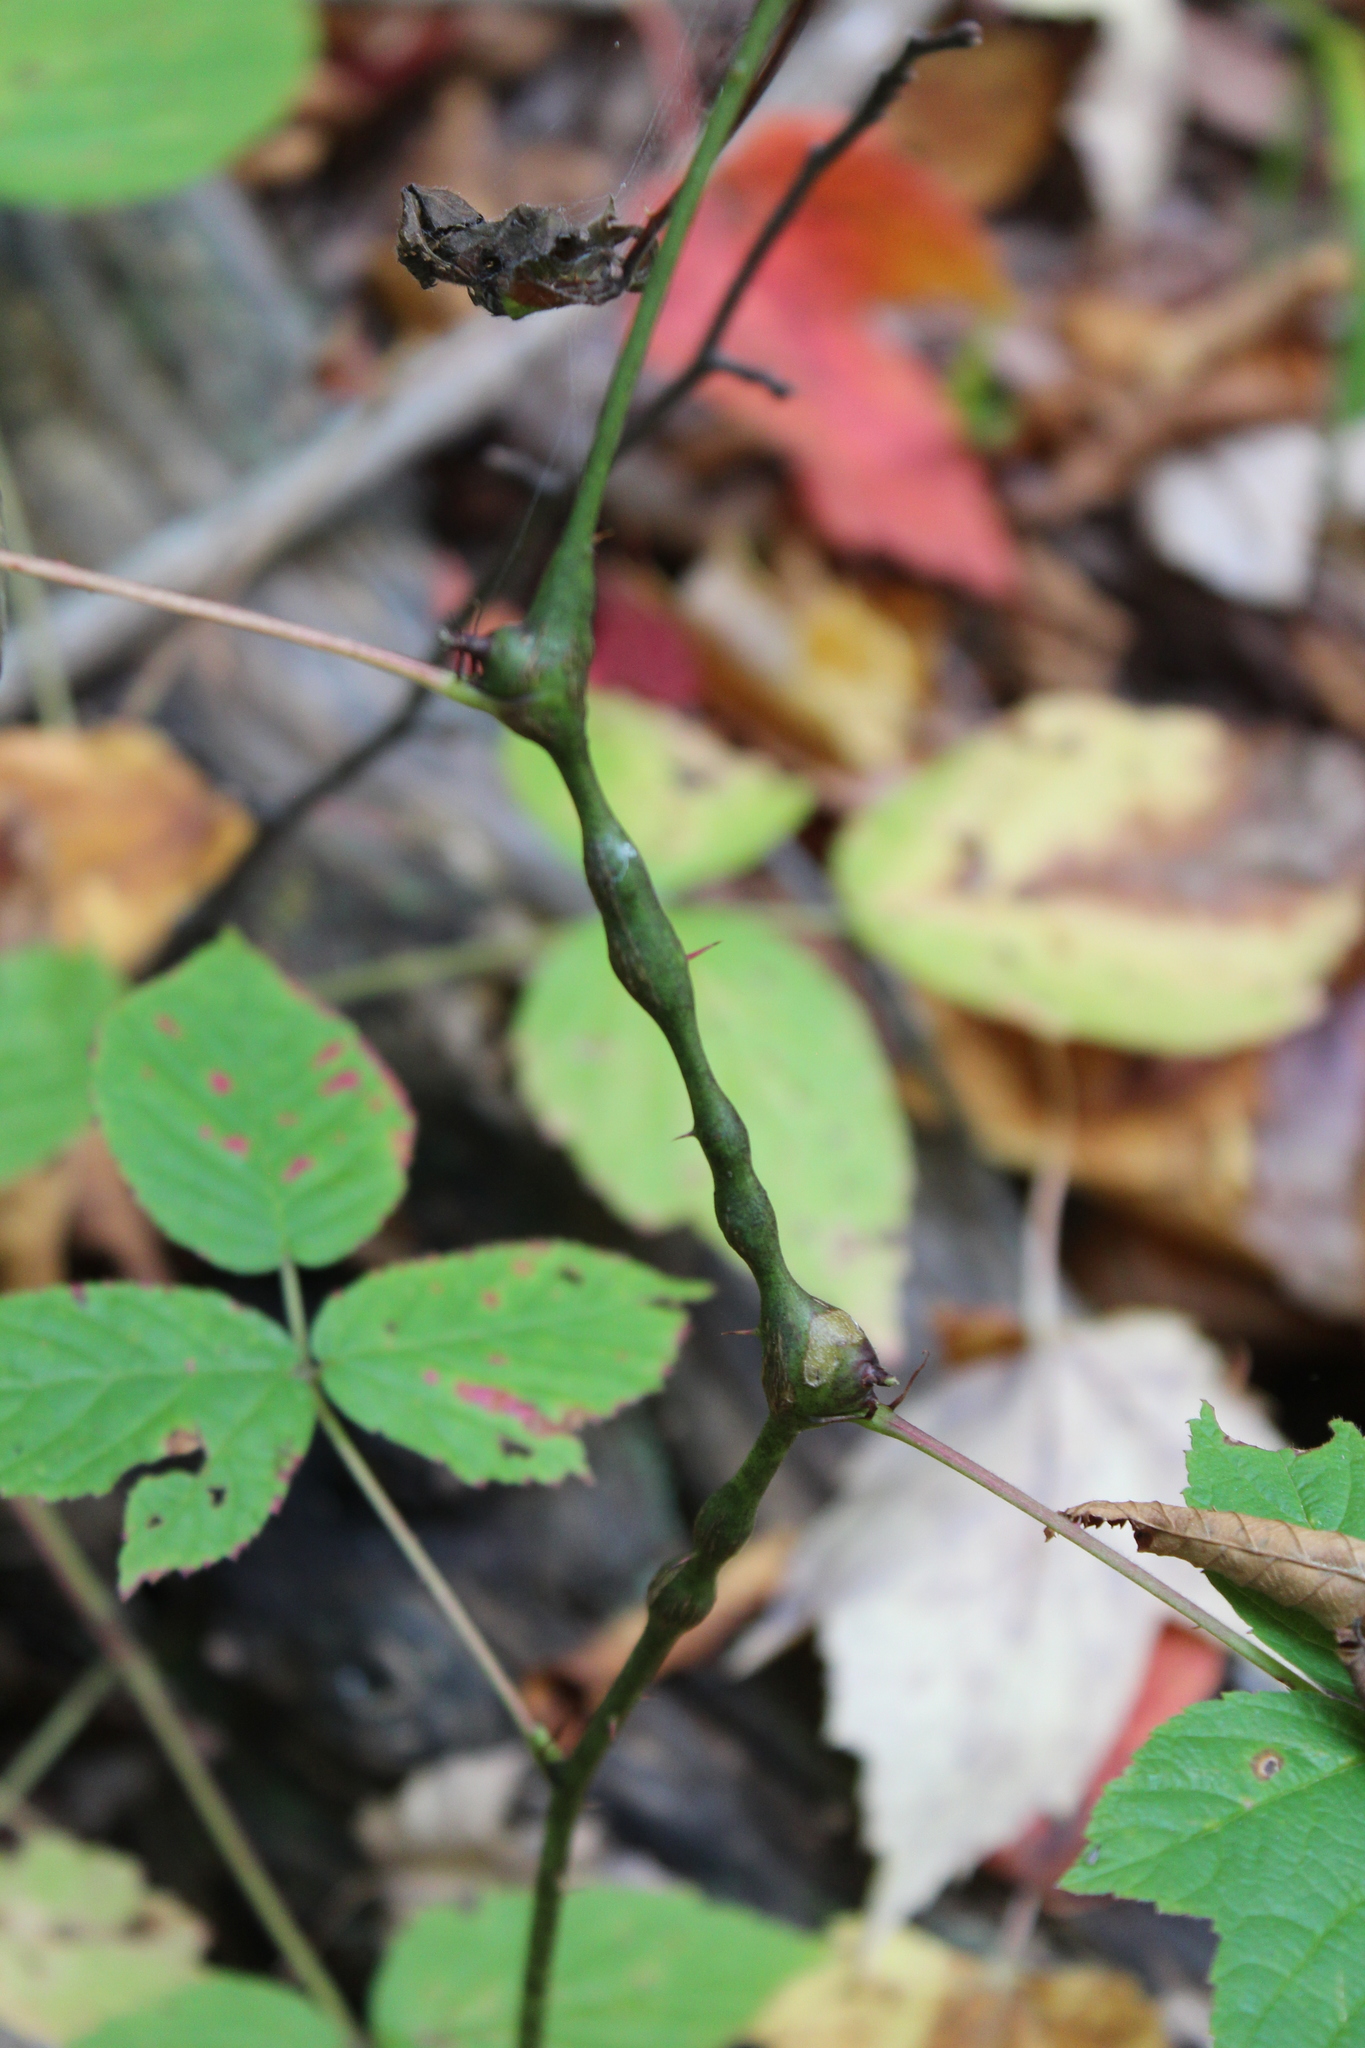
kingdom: Animalia
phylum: Arthropoda
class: Insecta
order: Diptera
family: Cecidomyiidae
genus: Neolasioptera
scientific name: Neolasioptera nodulosa
